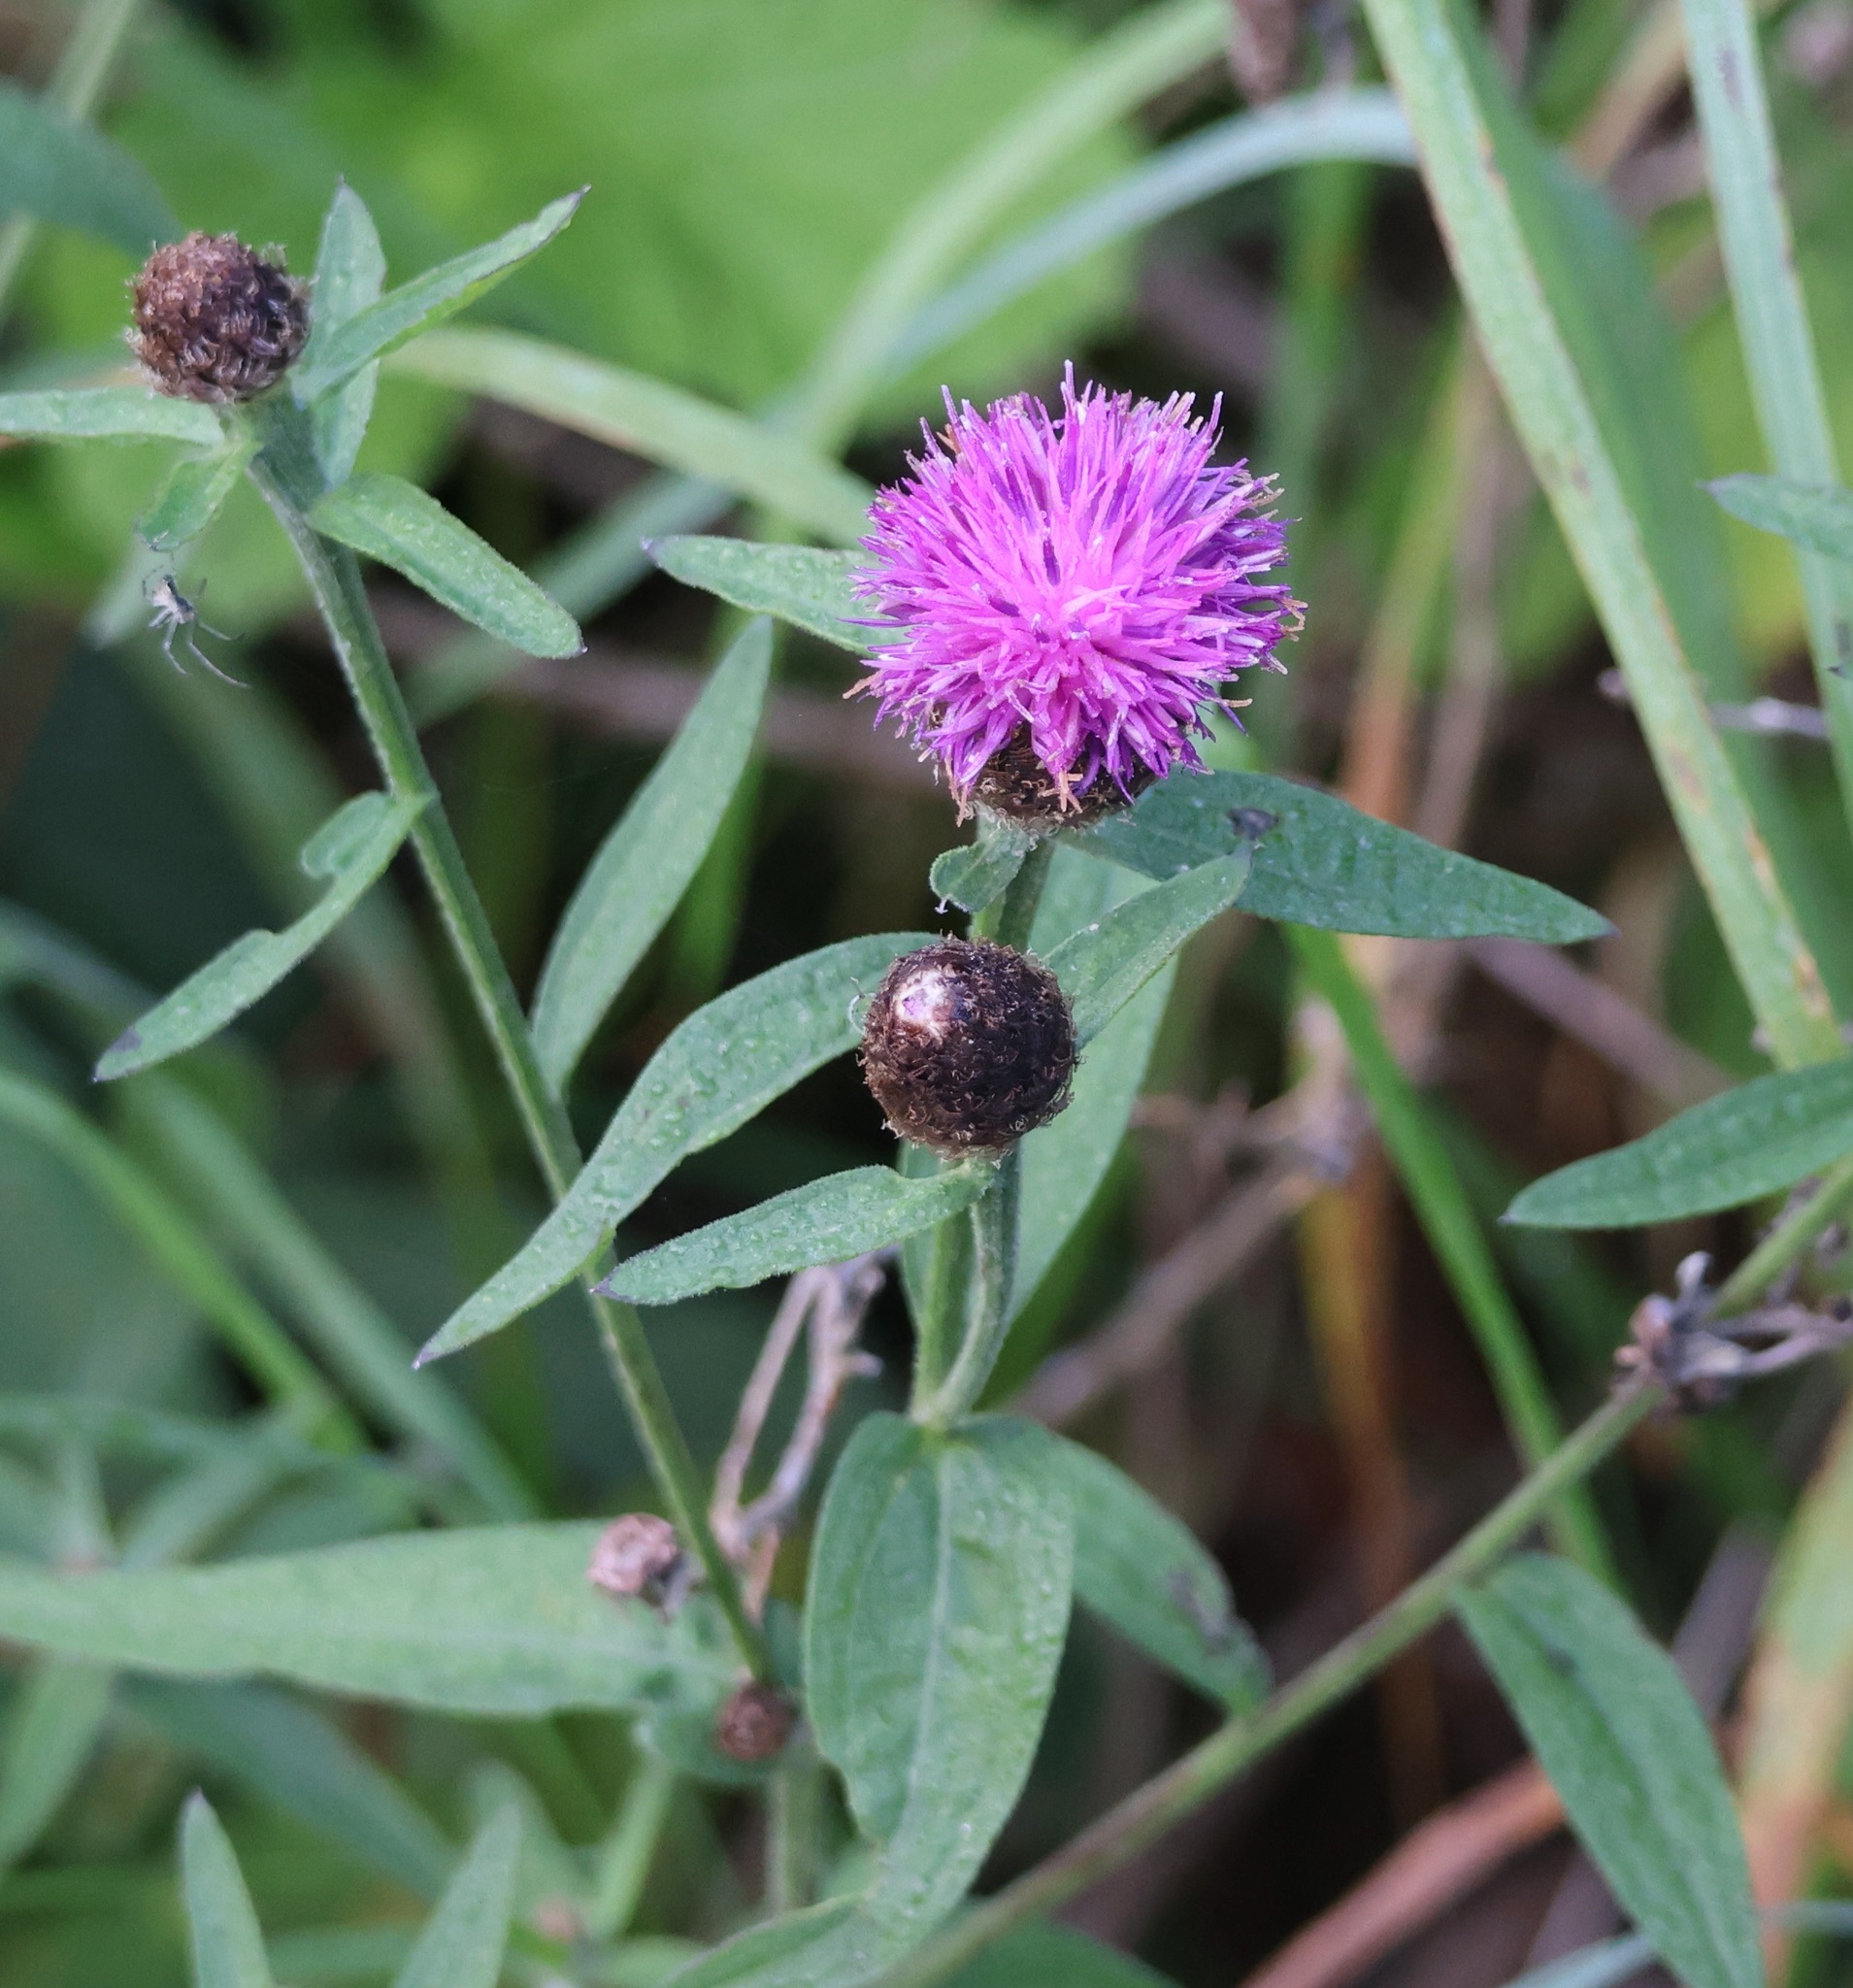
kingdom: Plantae
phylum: Tracheophyta
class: Magnoliopsida
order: Asterales
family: Asteraceae
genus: Centaurea
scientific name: Centaurea nigra
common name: Lesser knapweed
